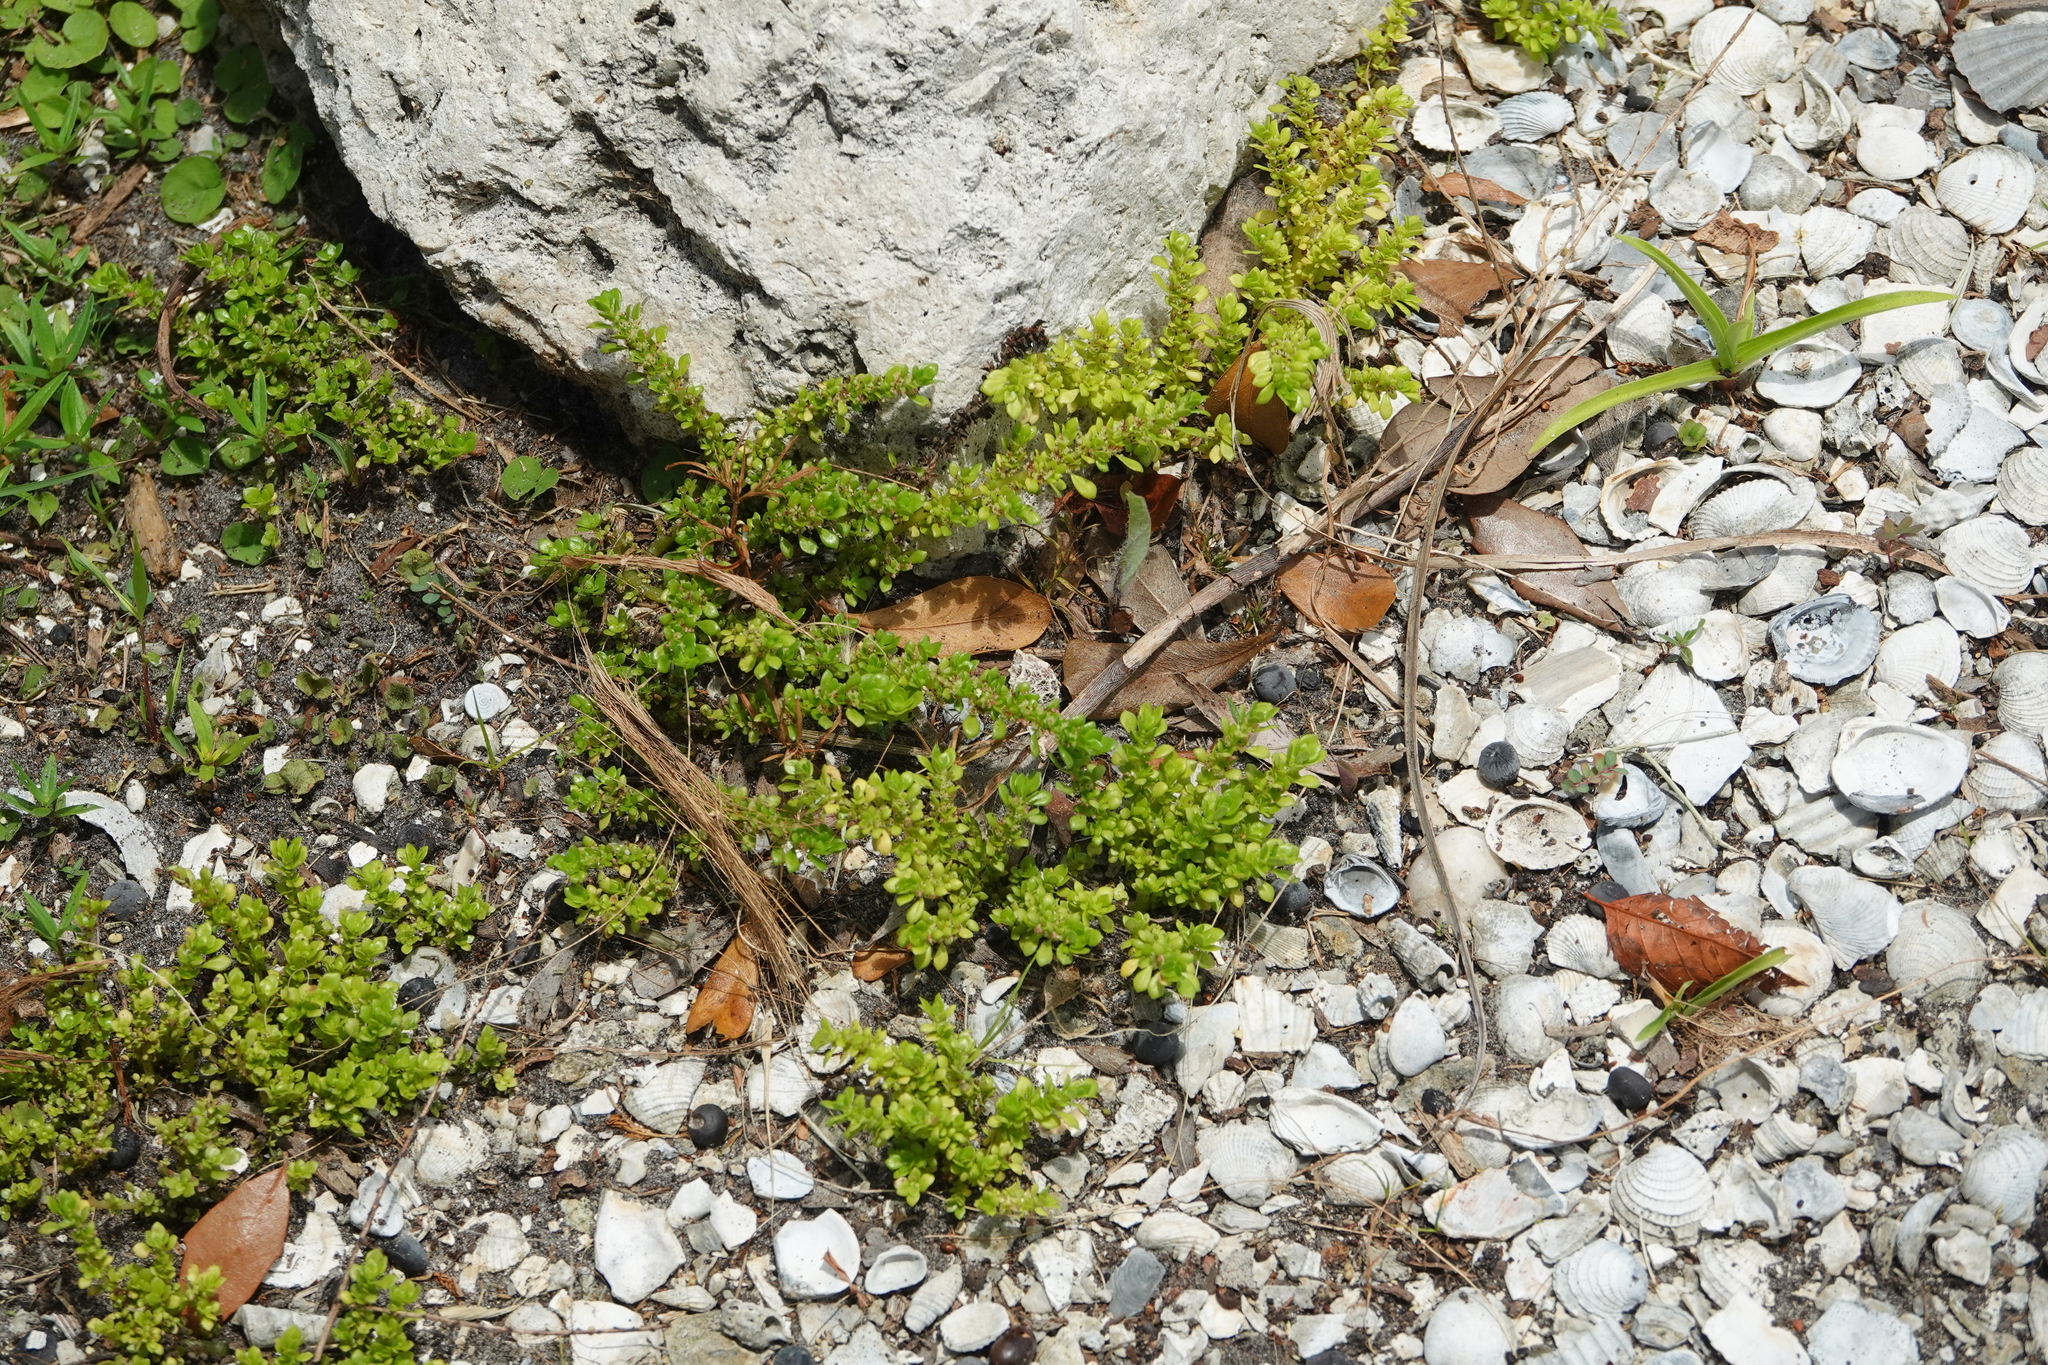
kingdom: Plantae
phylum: Tracheophyta
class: Magnoliopsida
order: Rosales
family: Urticaceae
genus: Pilea
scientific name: Pilea microphylla
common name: Artillery-plant
